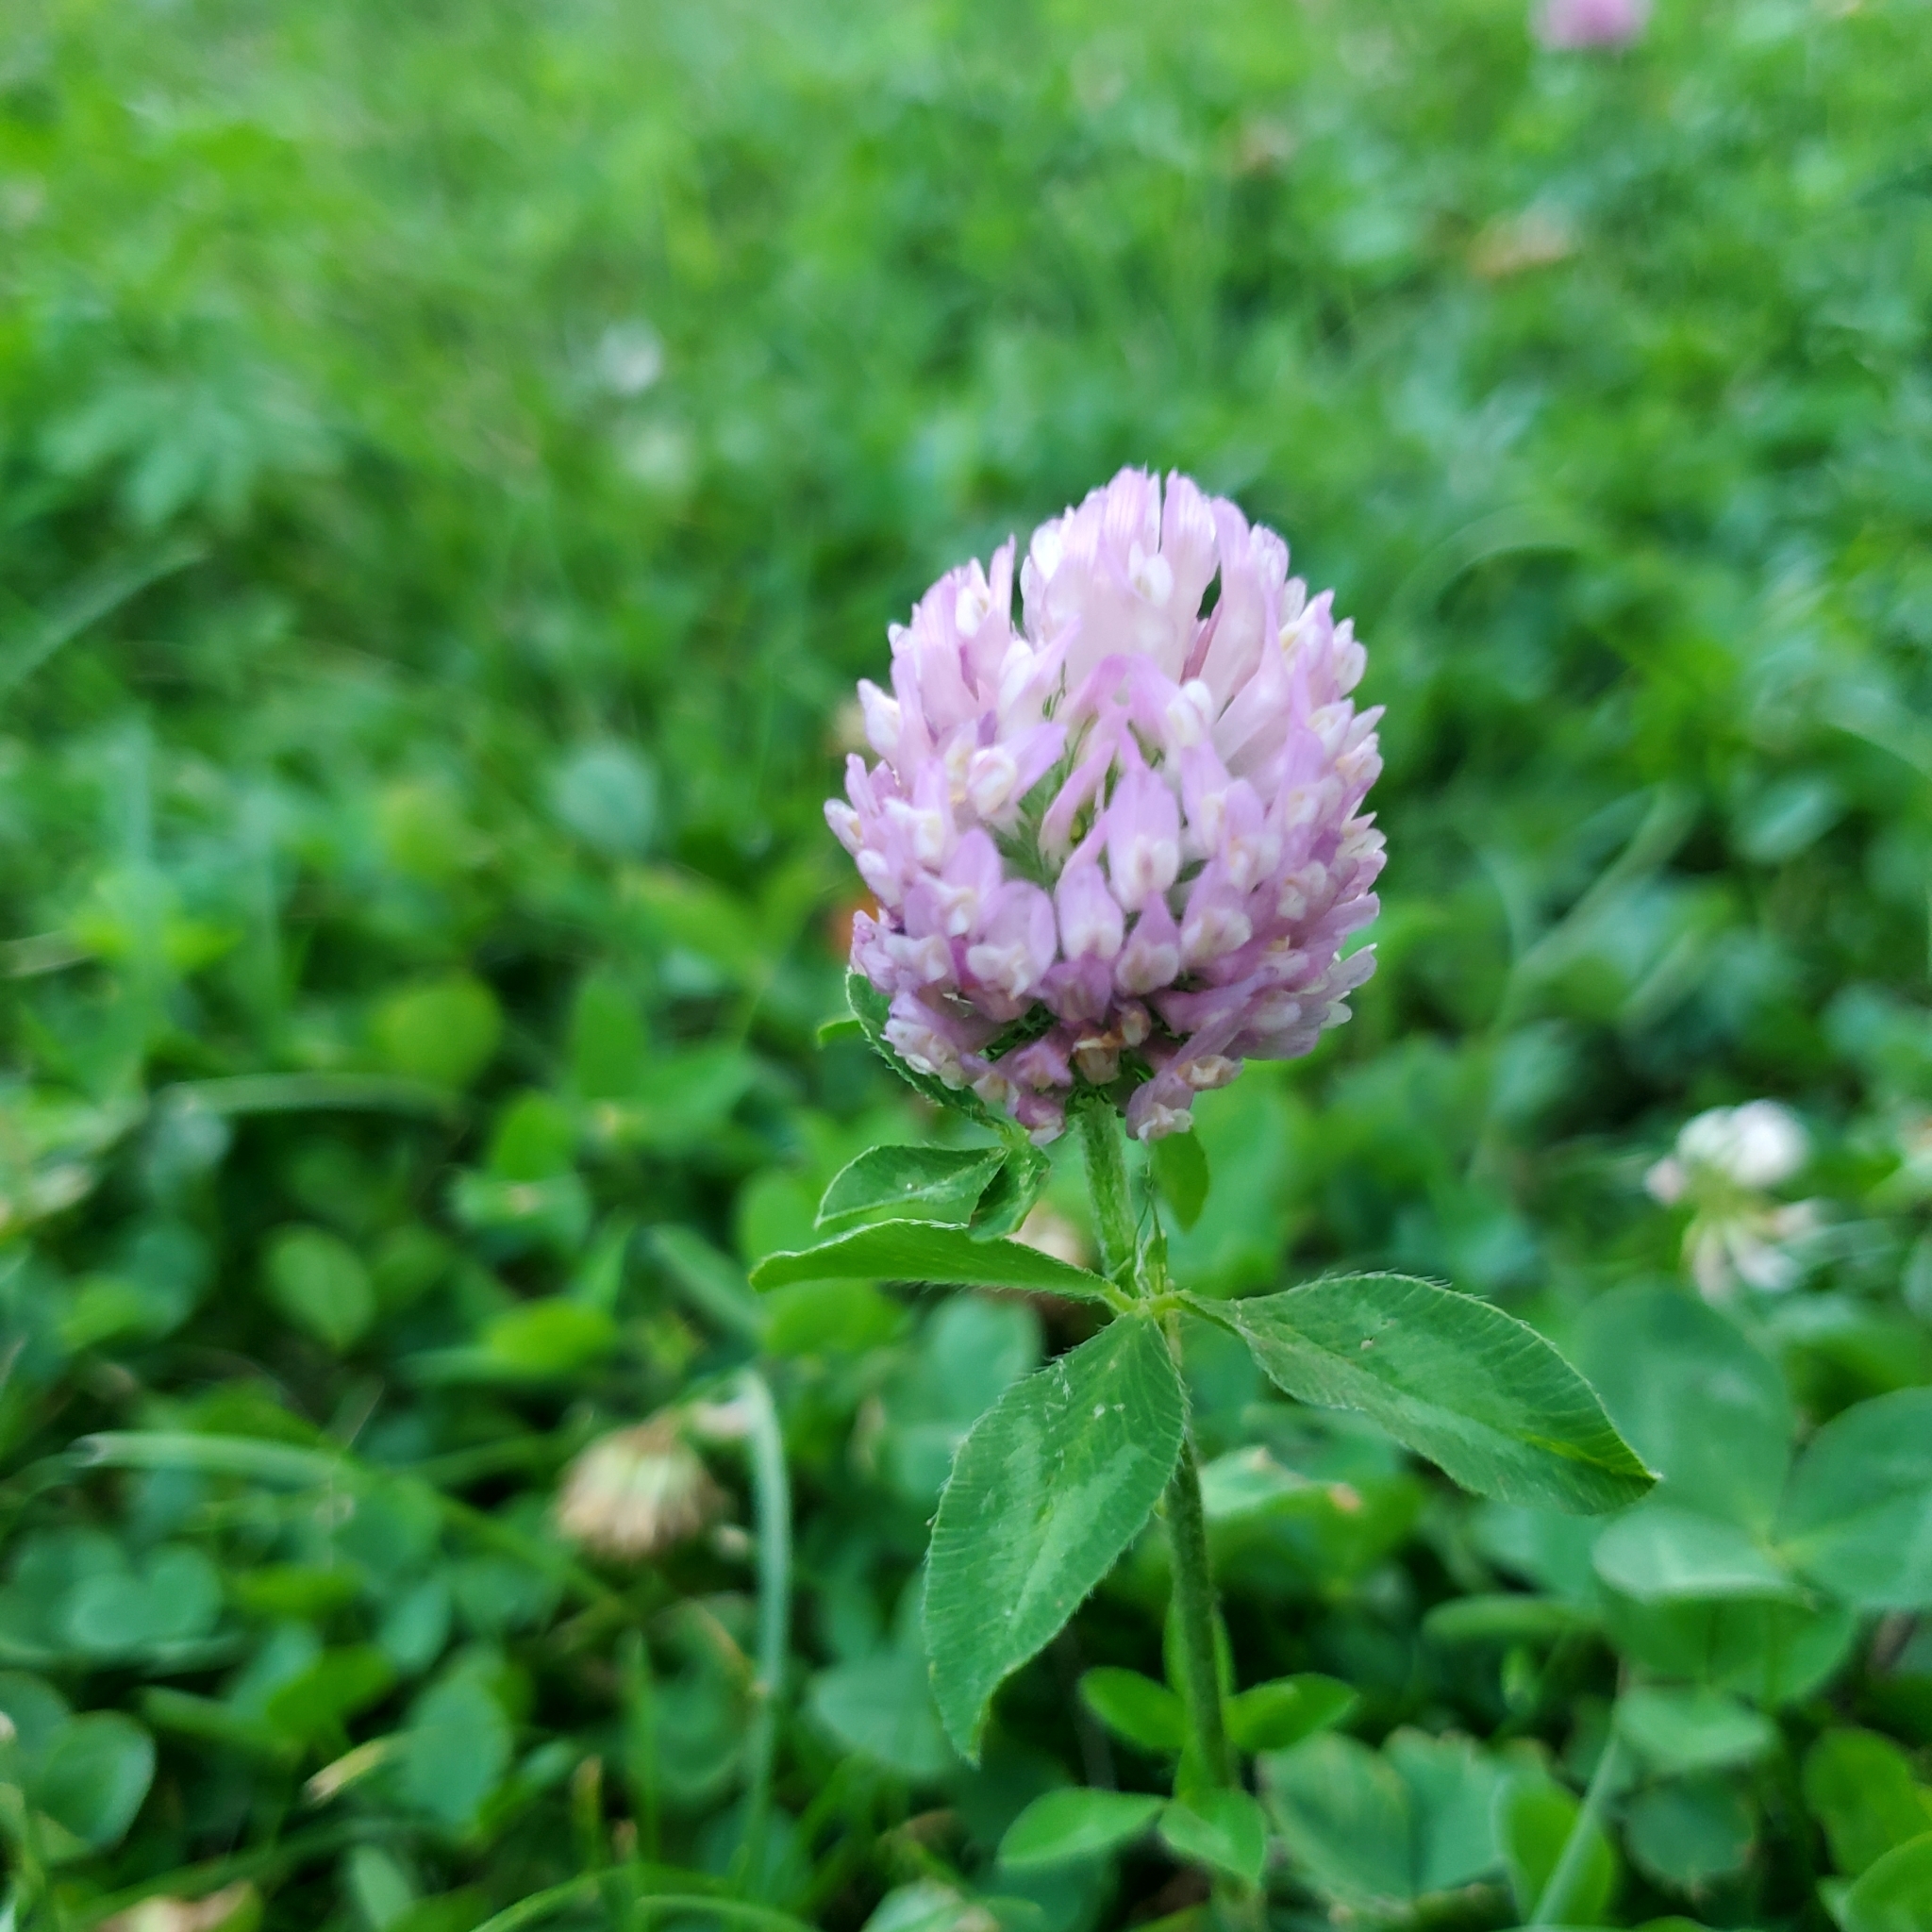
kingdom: Plantae
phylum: Tracheophyta
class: Magnoliopsida
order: Fabales
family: Fabaceae
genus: Trifolium
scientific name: Trifolium pratense
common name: Red clover
